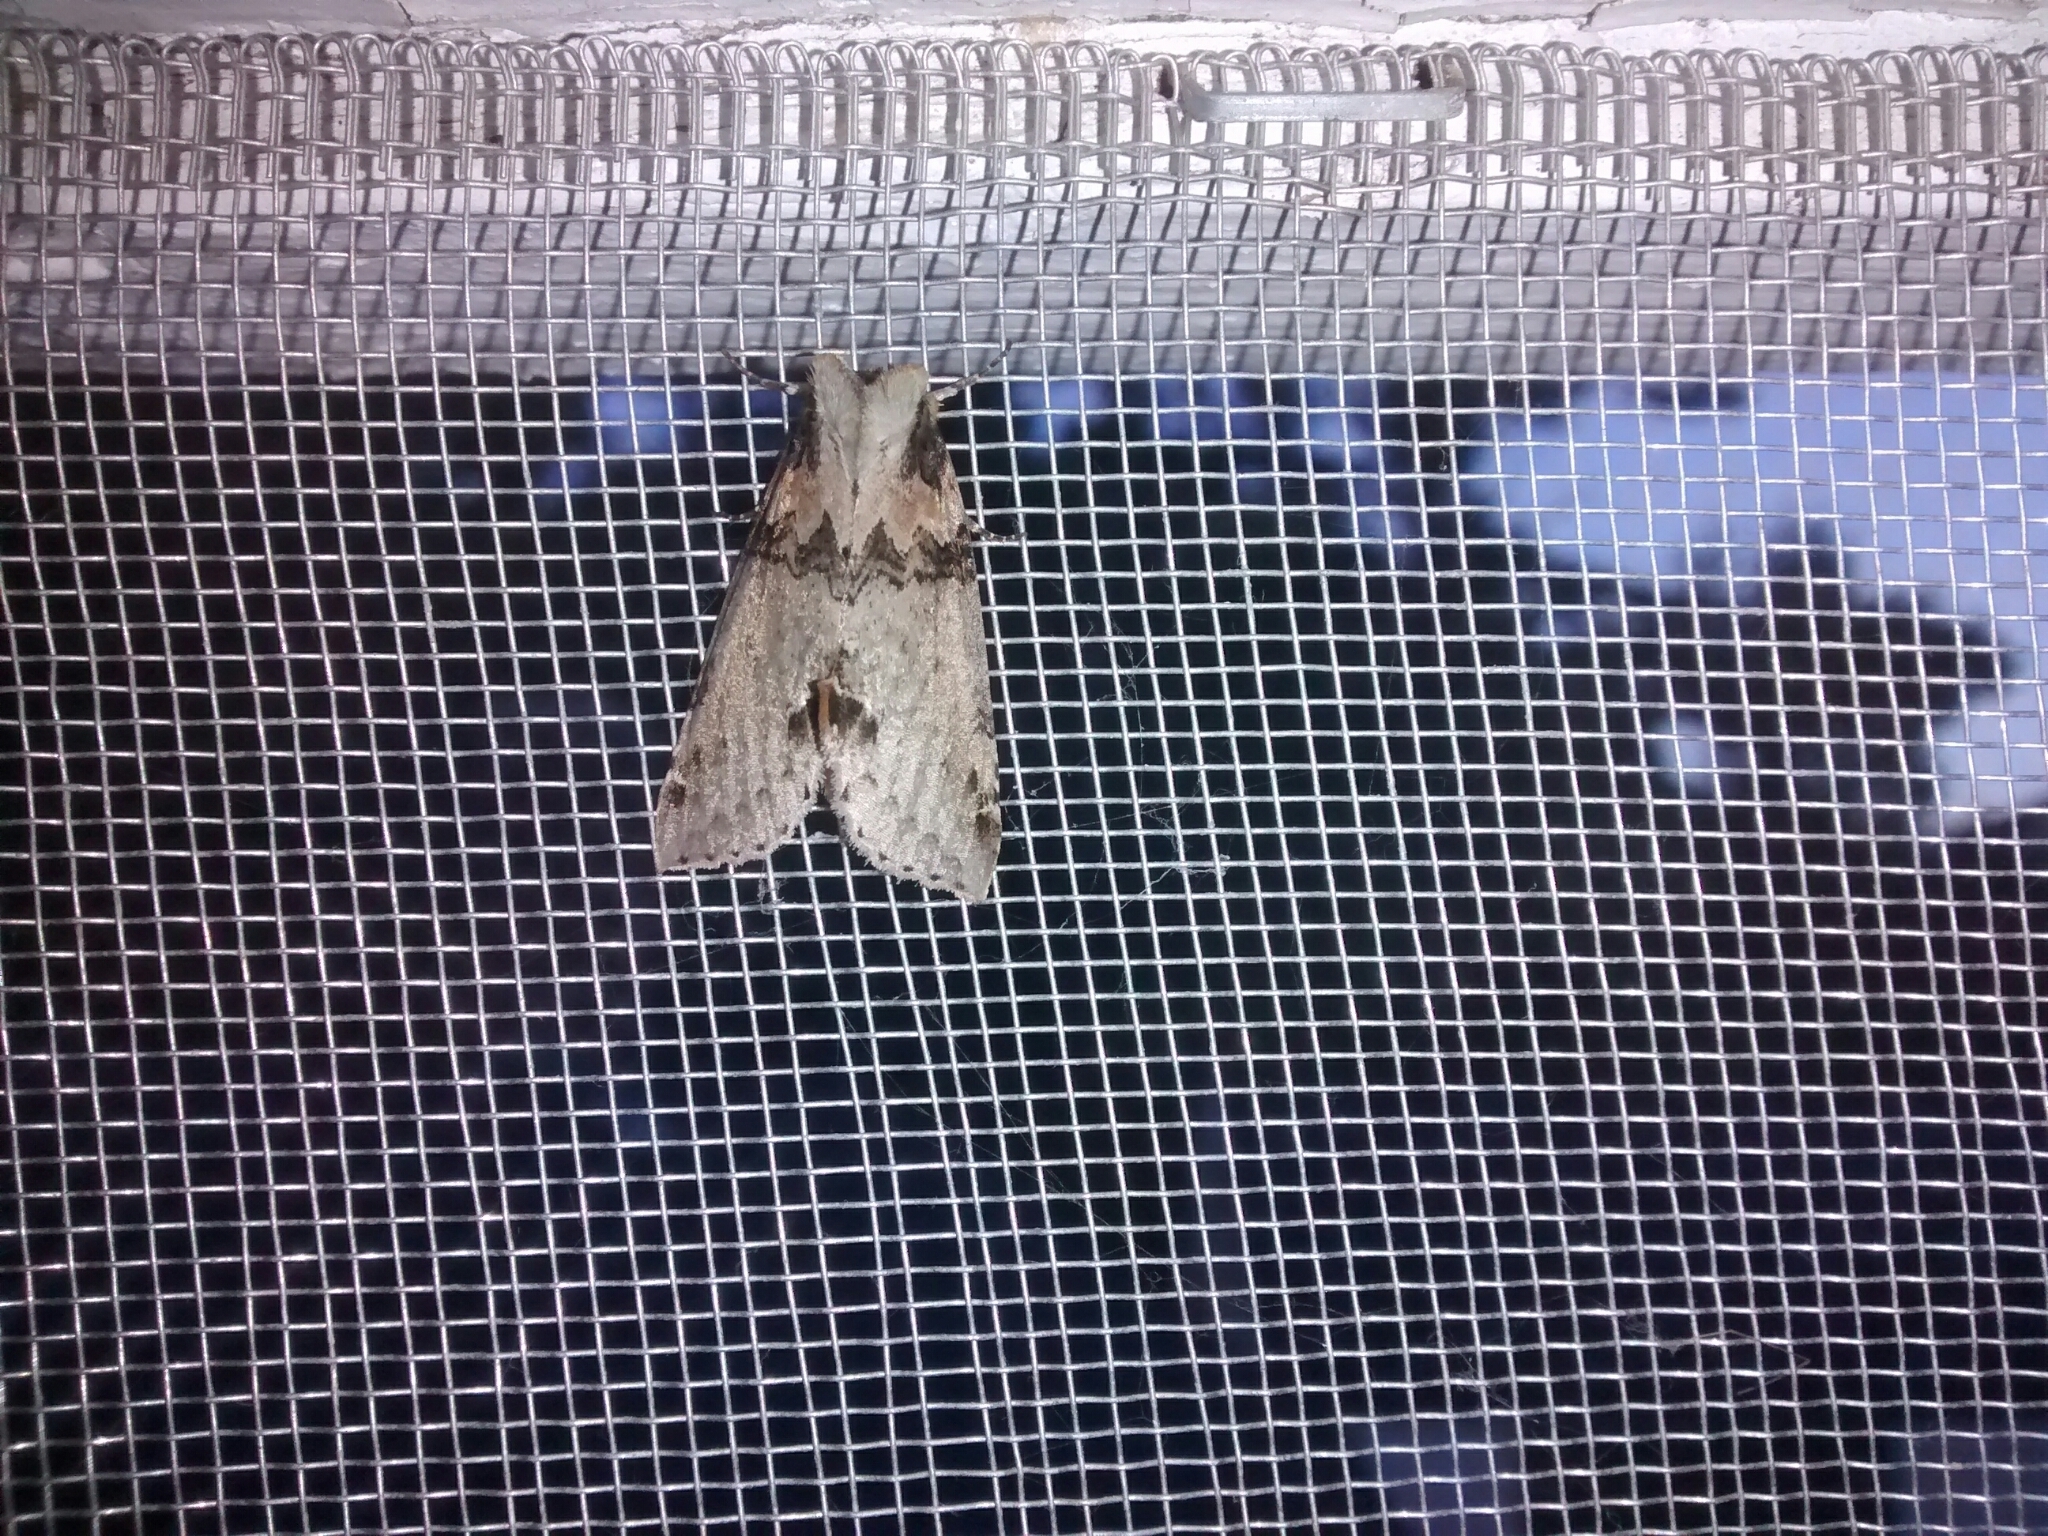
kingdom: Animalia
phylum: Arthropoda
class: Insecta
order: Lepidoptera
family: Drepanidae
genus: Pseudothyatira
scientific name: Pseudothyatira cymatophoroides
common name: Tufted thyatirid moth
